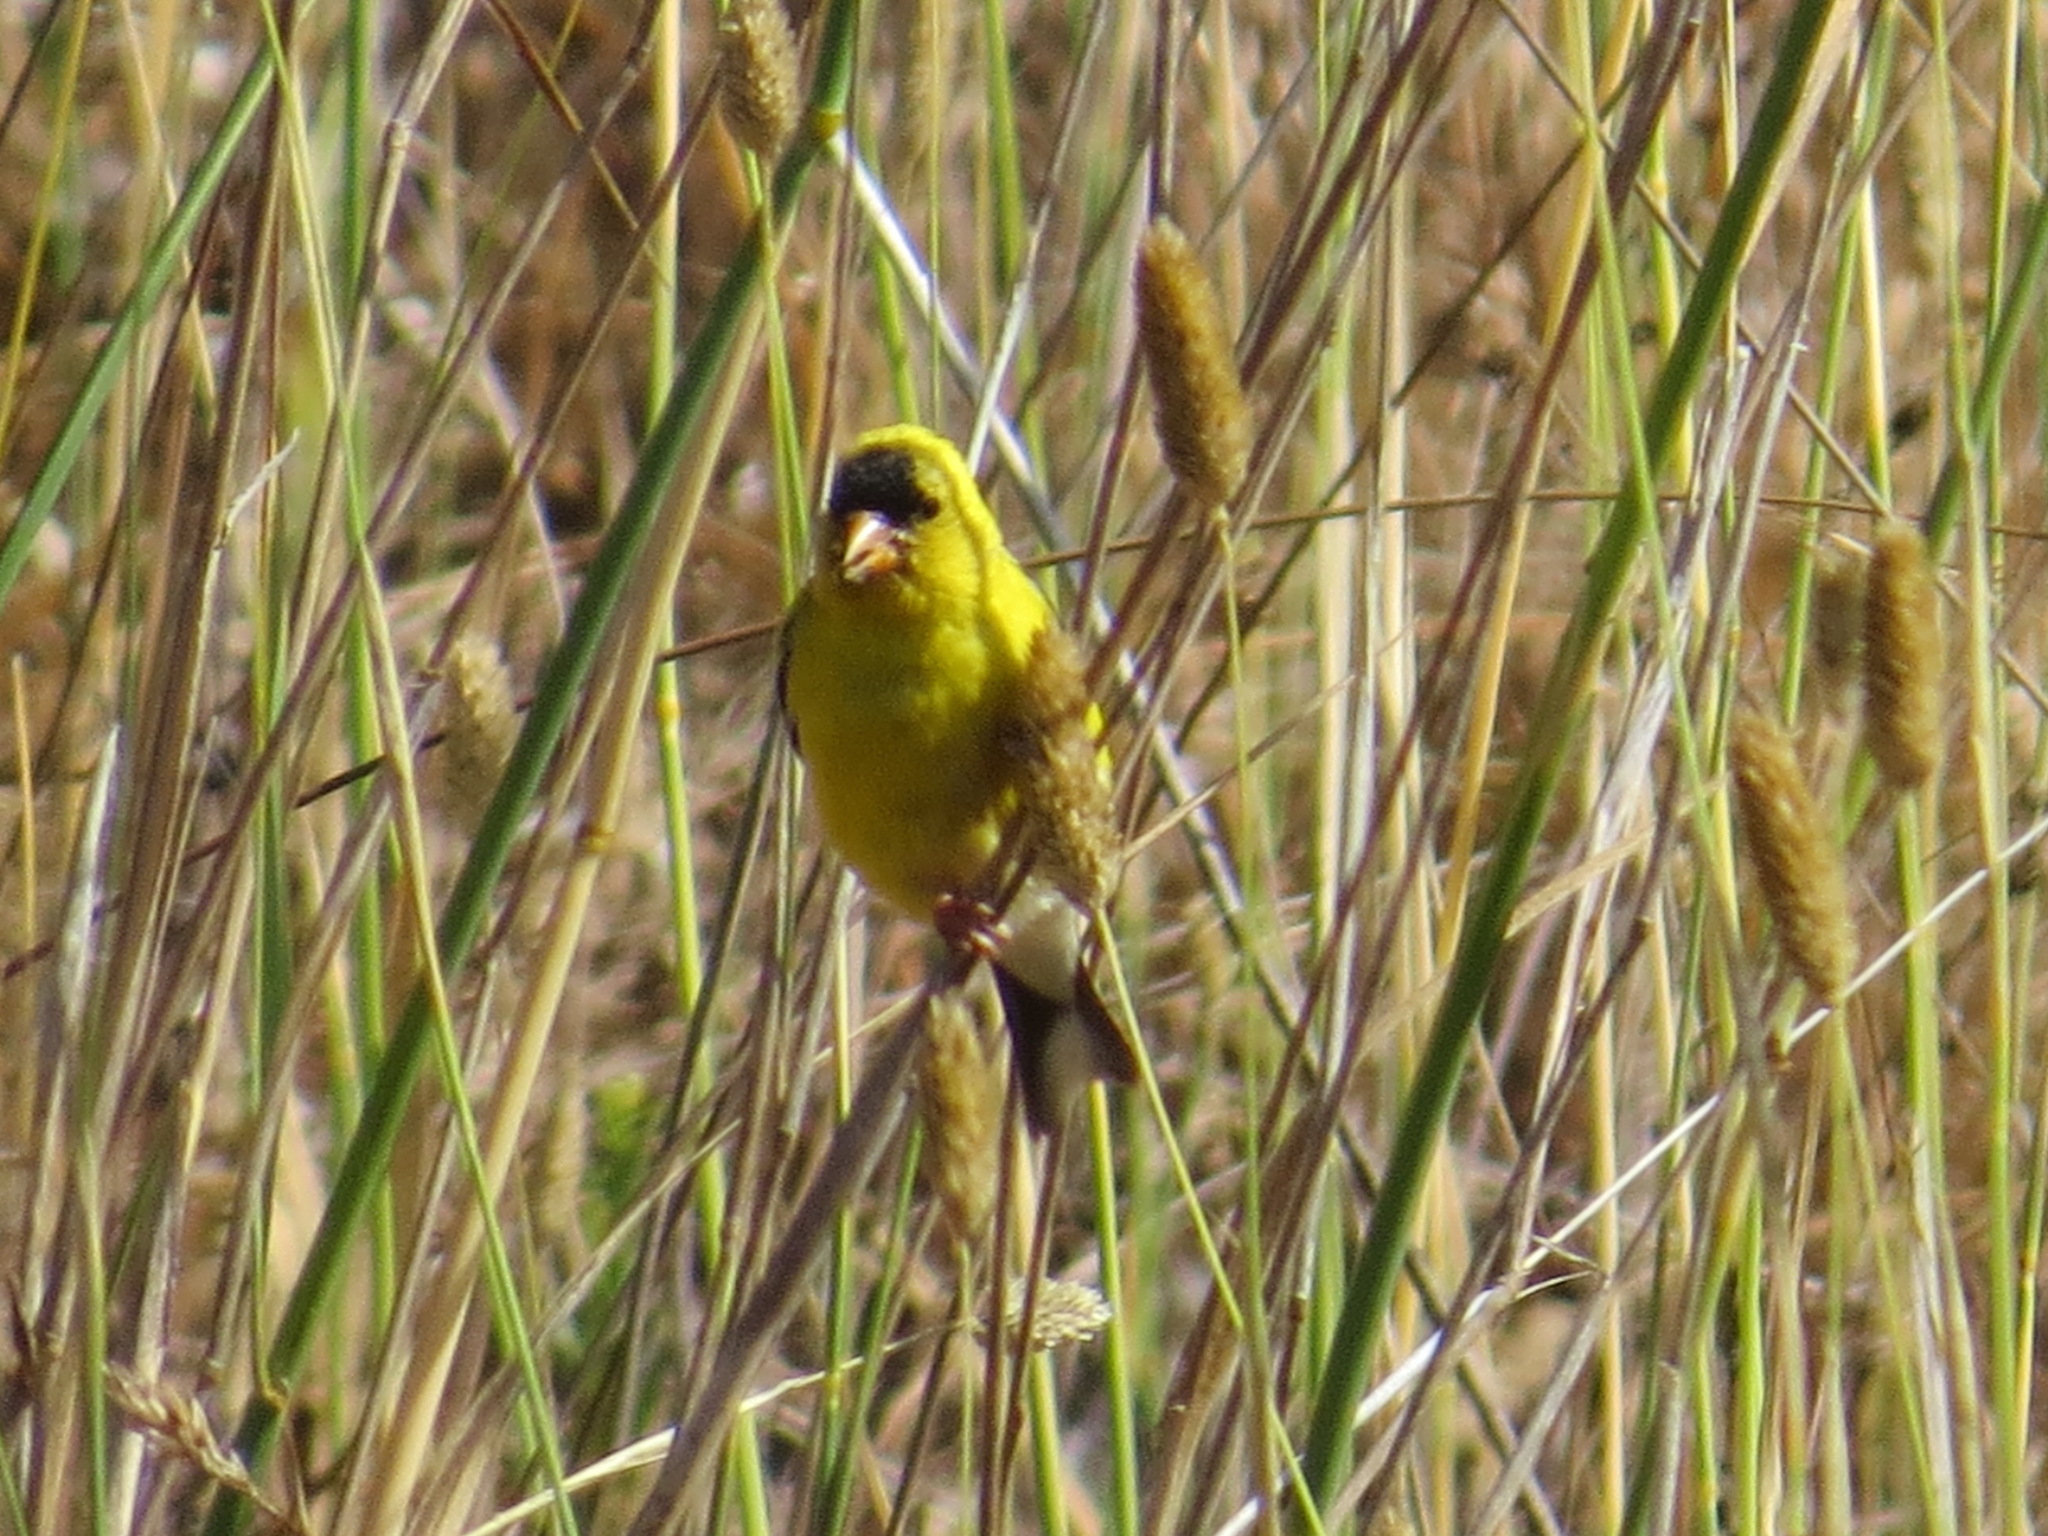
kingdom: Animalia
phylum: Chordata
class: Aves
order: Passeriformes
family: Fringillidae
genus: Spinus
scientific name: Spinus tristis
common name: American goldfinch
